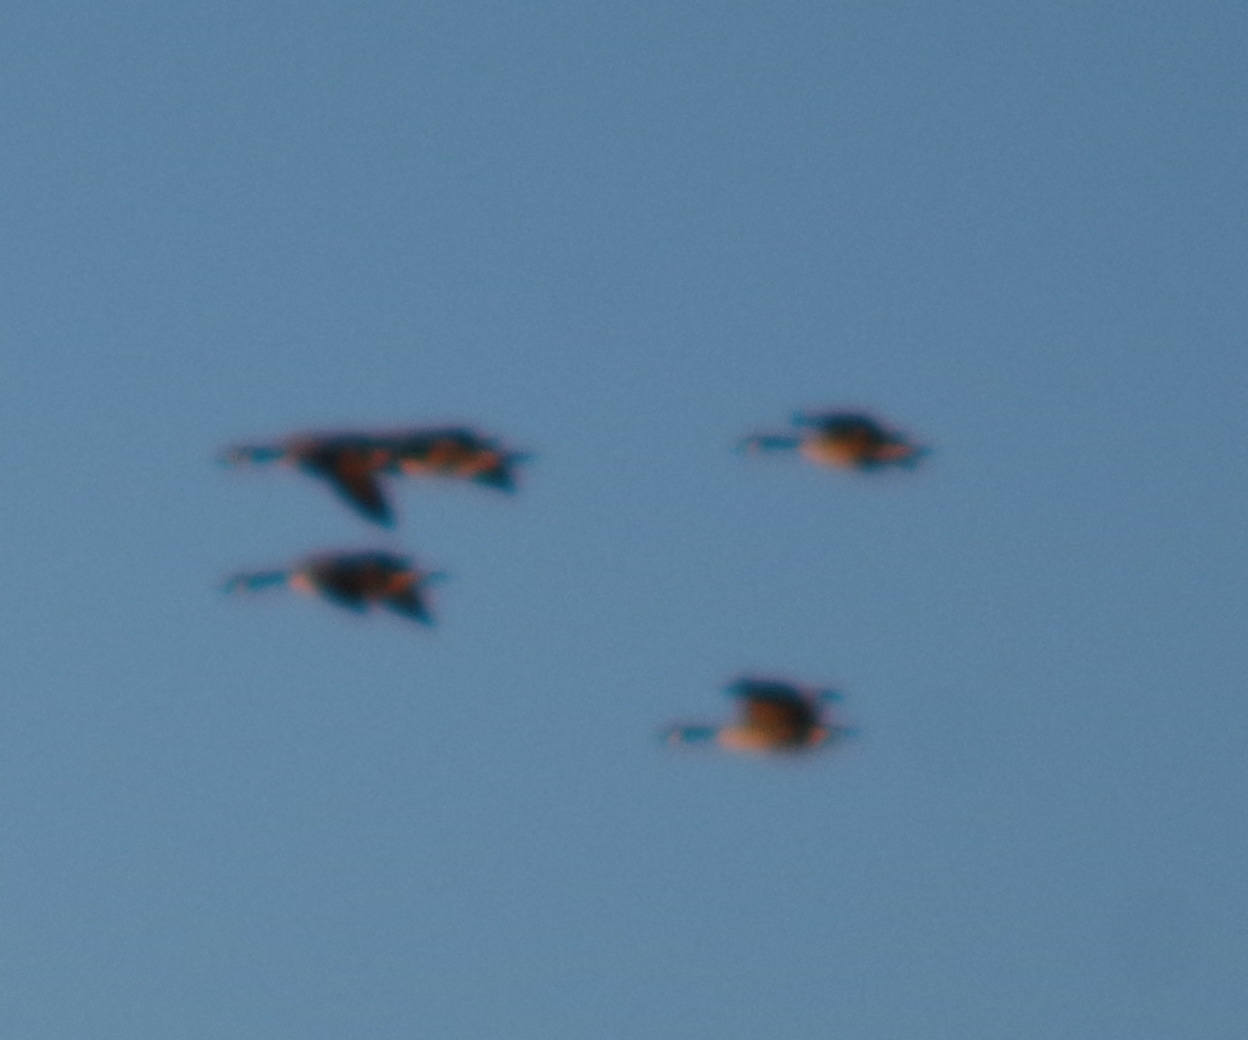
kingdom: Animalia
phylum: Chordata
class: Aves
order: Anseriformes
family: Anatidae
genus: Branta
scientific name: Branta canadensis
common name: Canada goose
